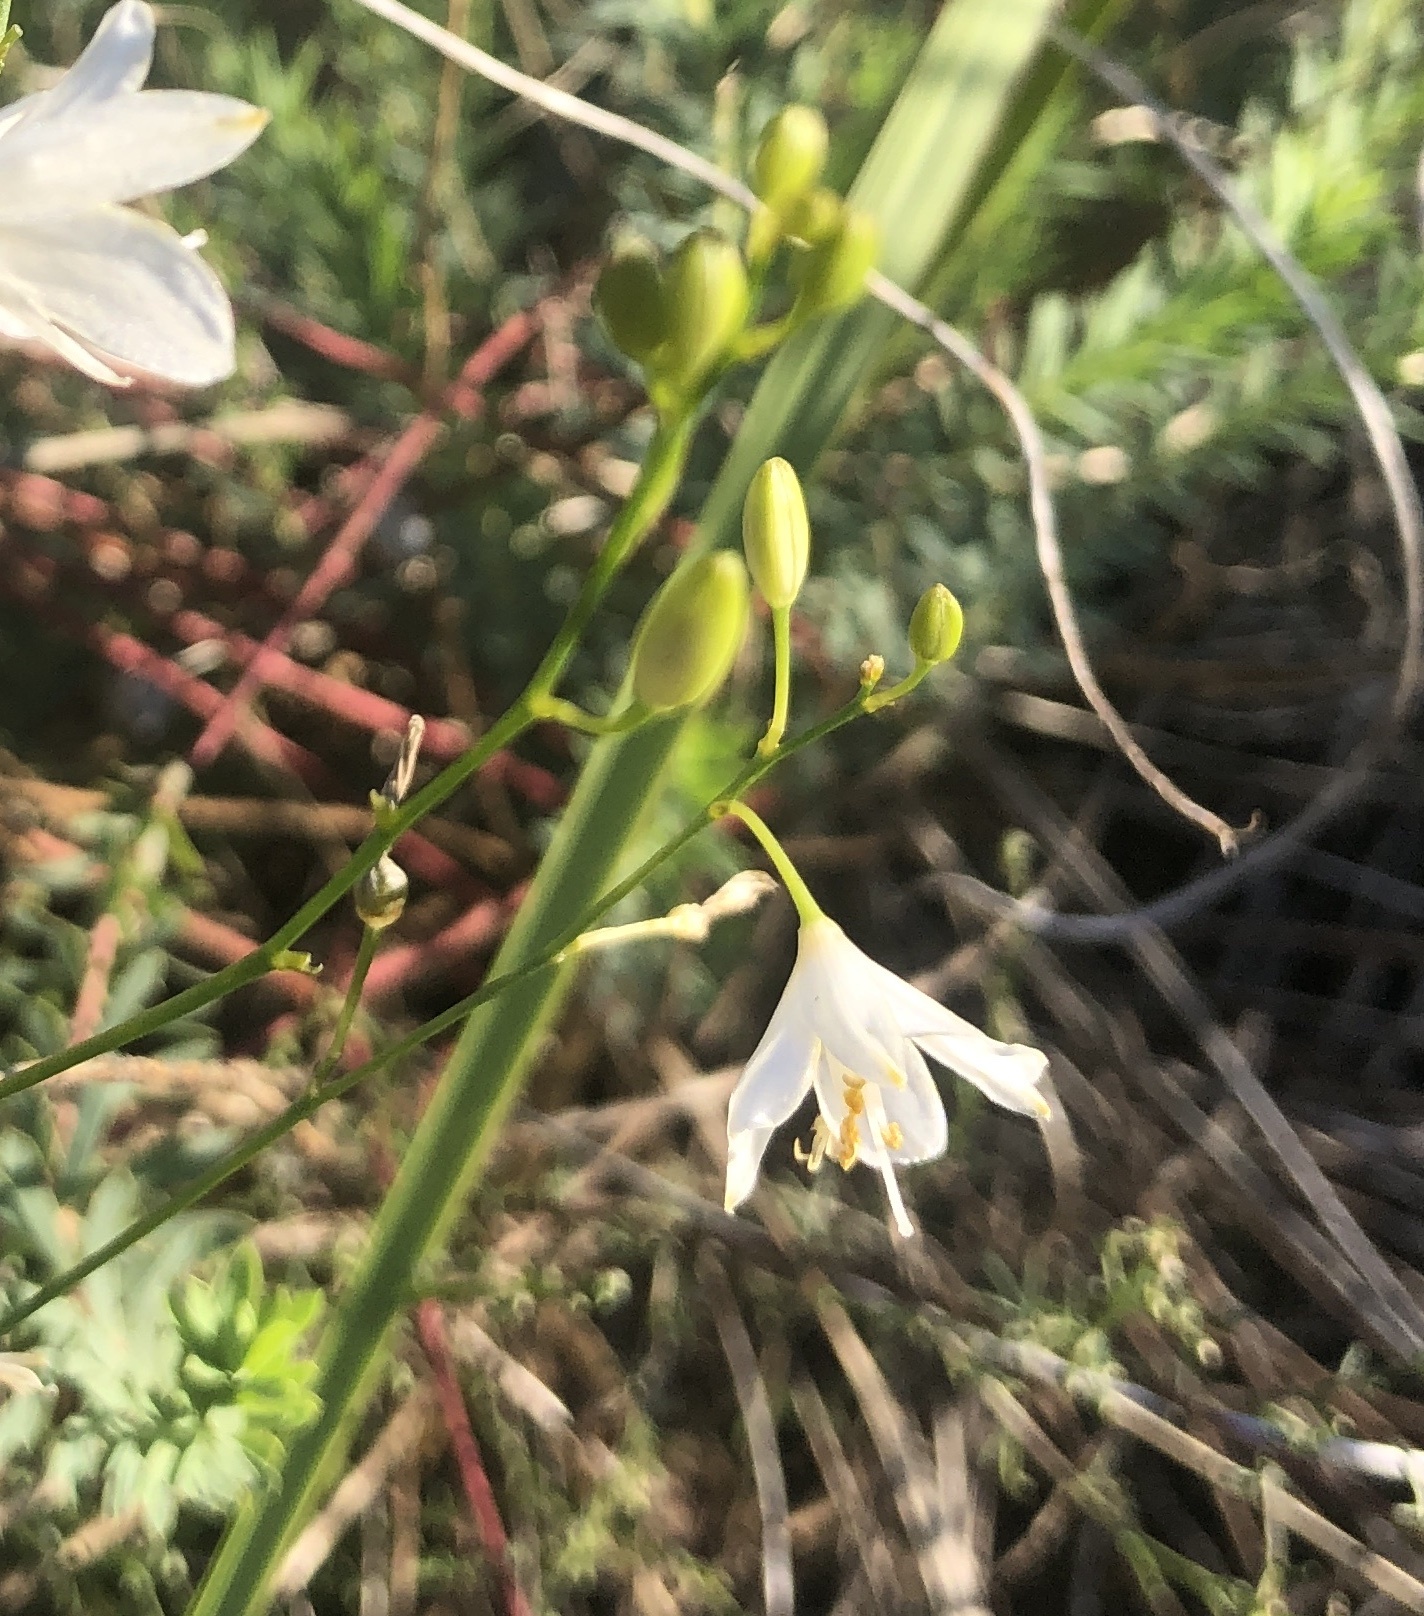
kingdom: Plantae
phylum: Tracheophyta
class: Liliopsida
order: Asparagales
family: Asparagaceae
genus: Anthericum
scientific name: Anthericum ramosum
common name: Branched st. bernard's-lily
